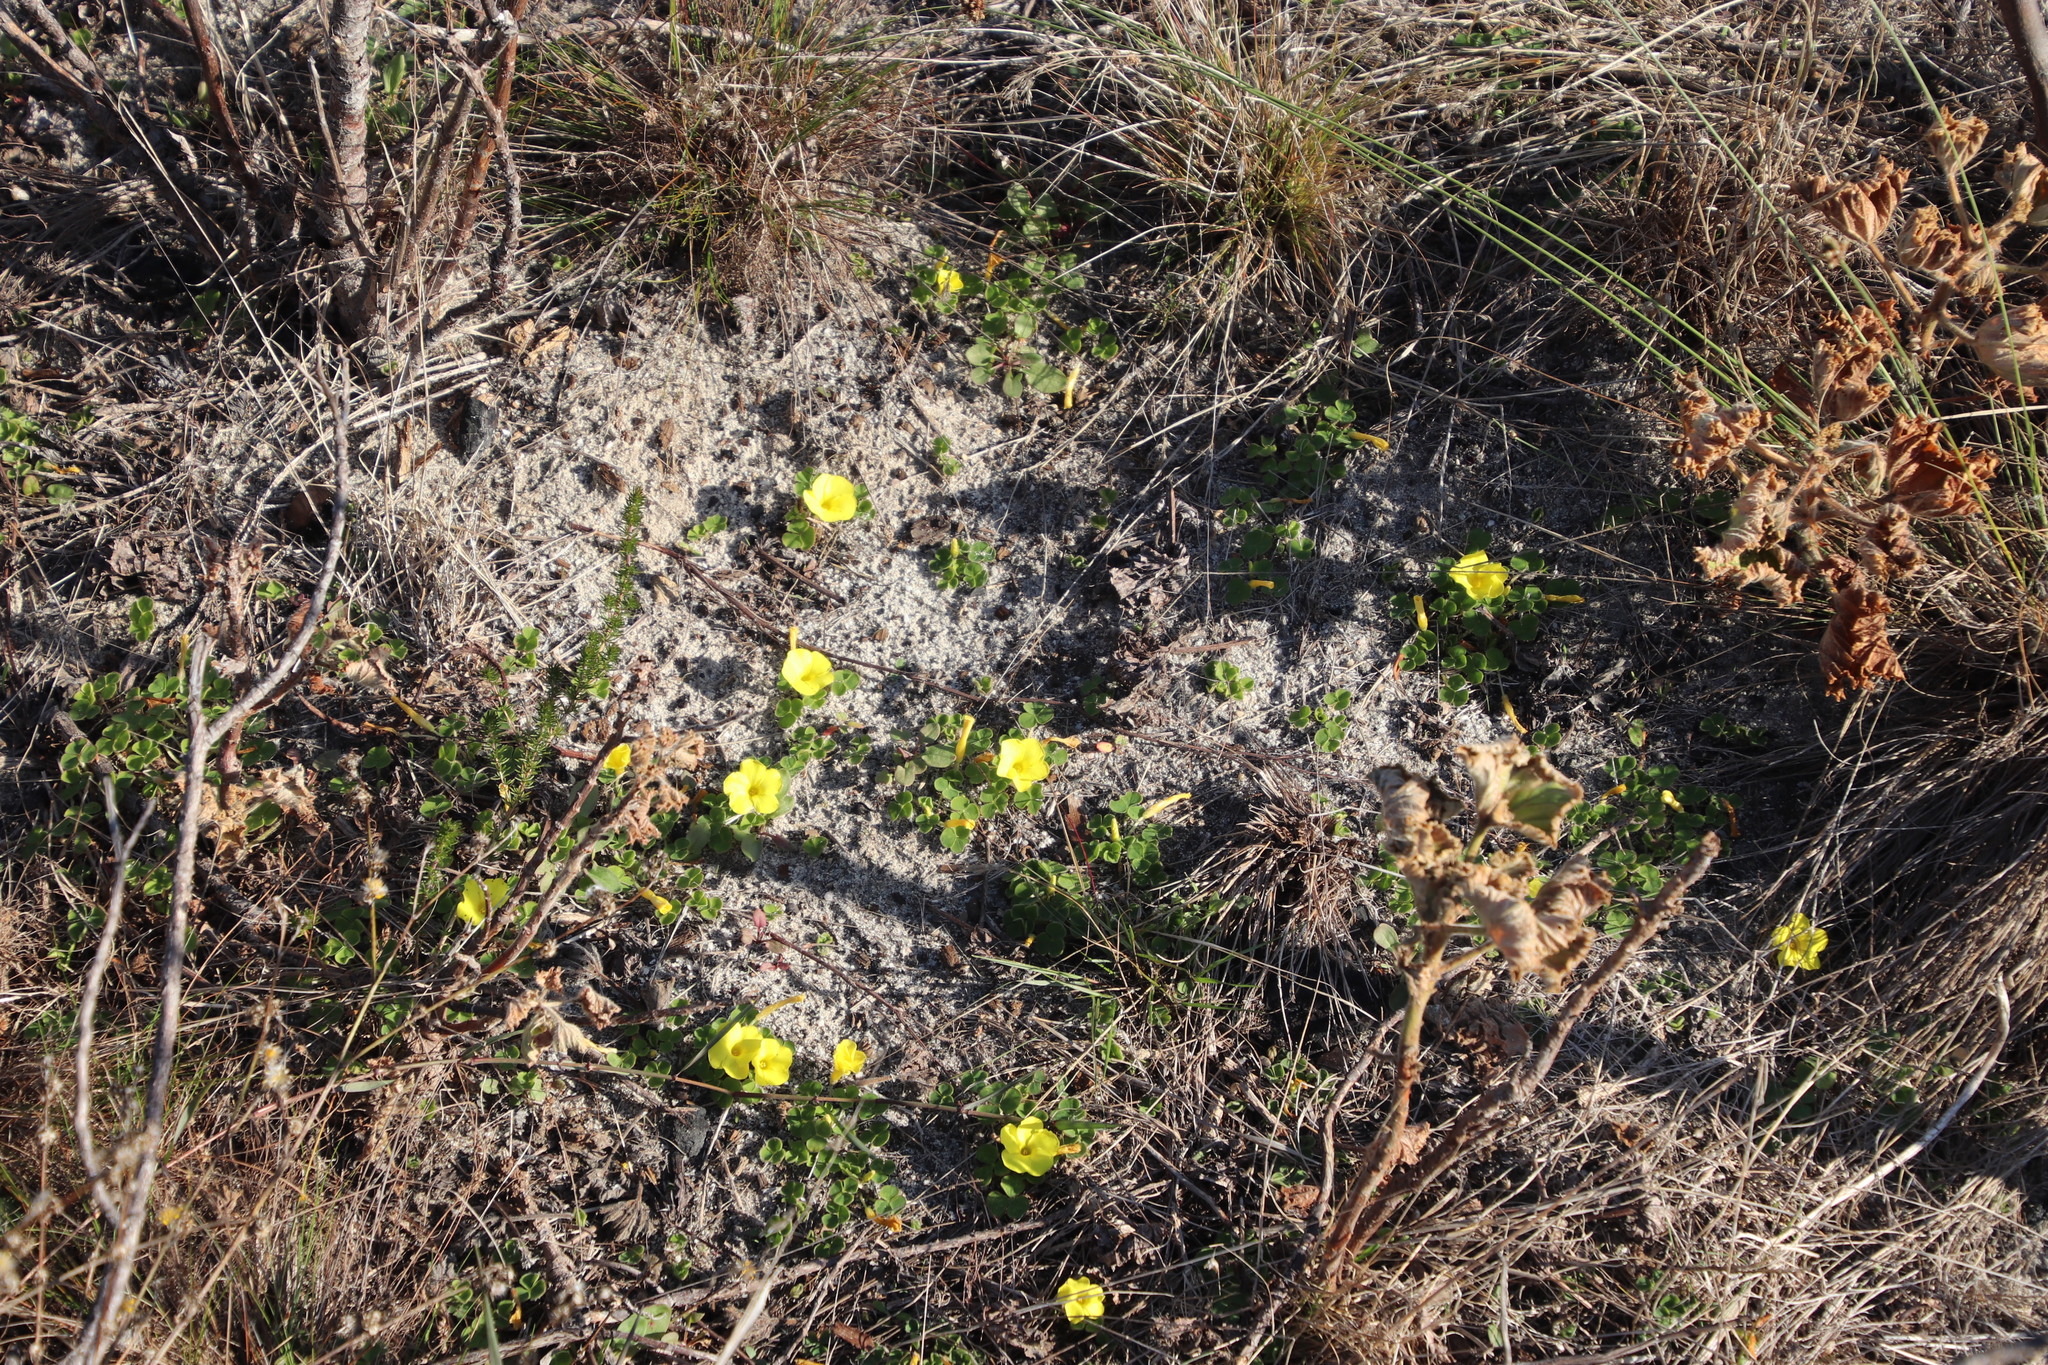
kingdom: Plantae
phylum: Tracheophyta
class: Magnoliopsida
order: Oxalidales
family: Oxalidaceae
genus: Oxalis
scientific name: Oxalis luteola
